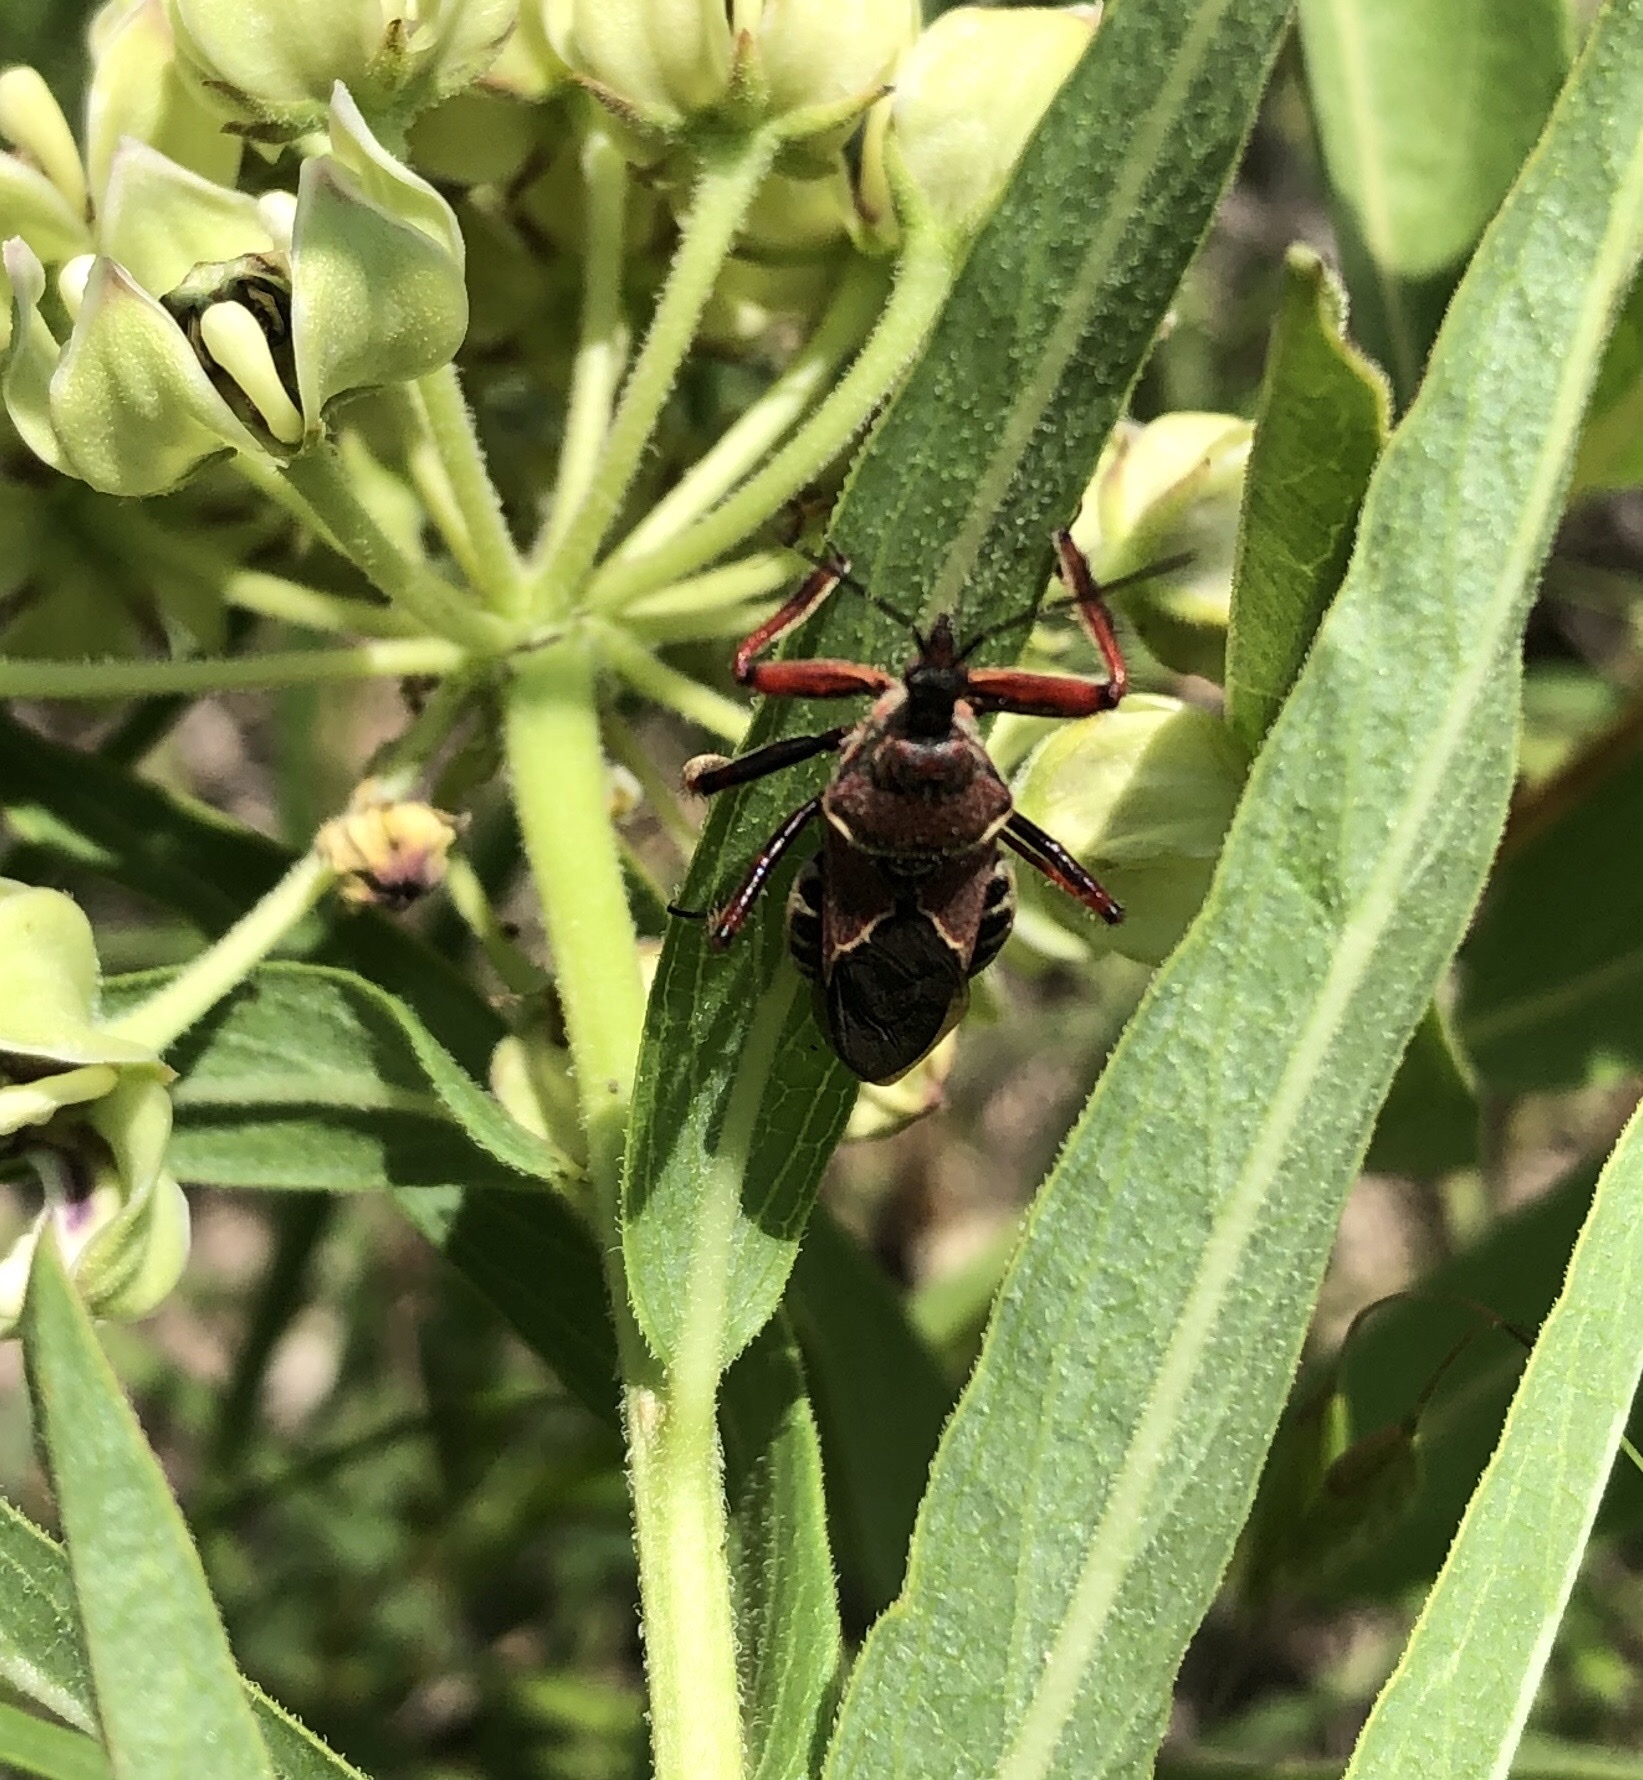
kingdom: Animalia
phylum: Arthropoda
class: Insecta
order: Hemiptera
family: Reduviidae
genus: Apiomerus
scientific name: Apiomerus spissipes
